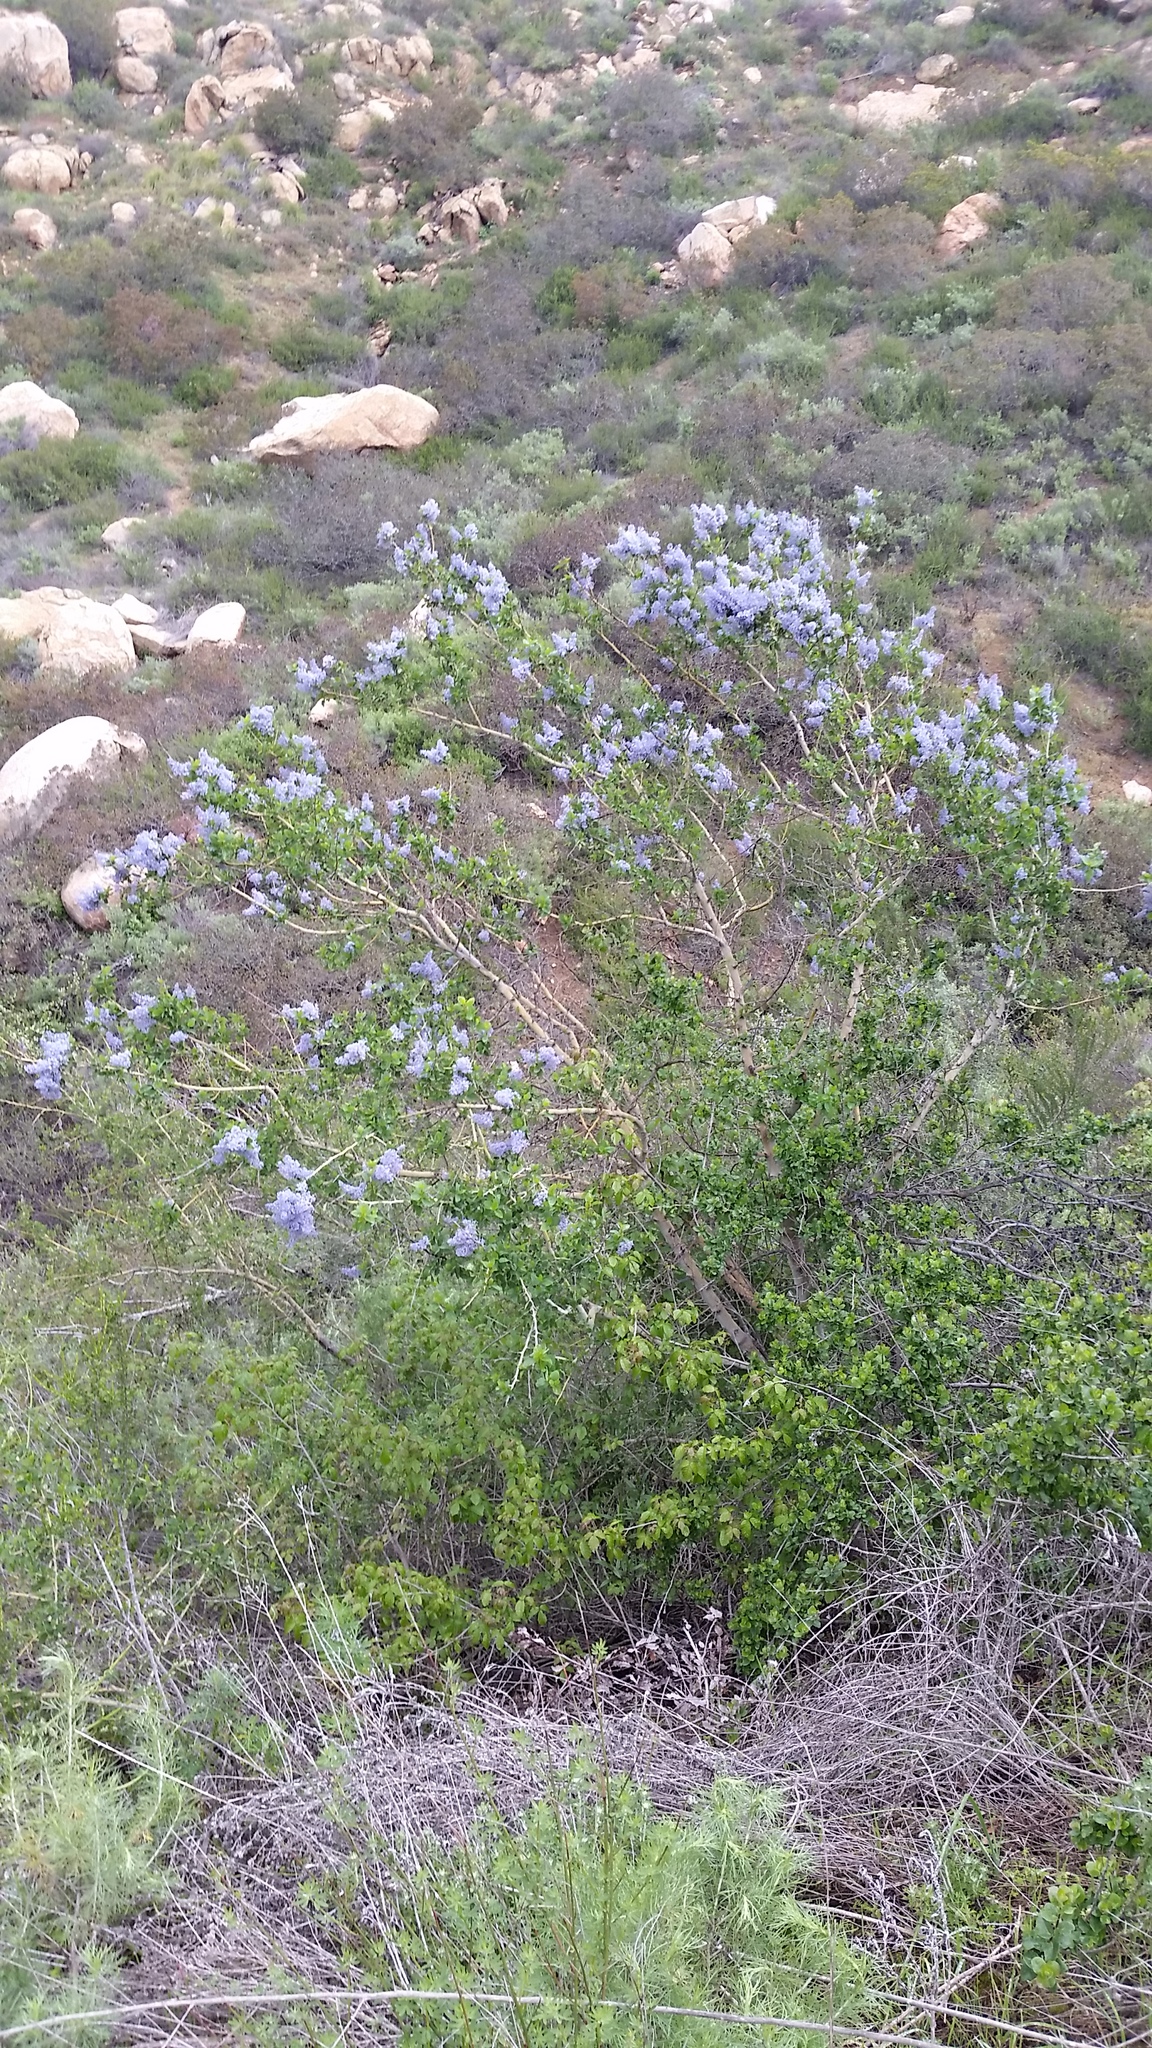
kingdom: Plantae
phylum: Tracheophyta
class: Magnoliopsida
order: Rosales
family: Rhamnaceae
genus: Ceanothus
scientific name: Ceanothus leucodermis
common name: Chaparral whitethorn
